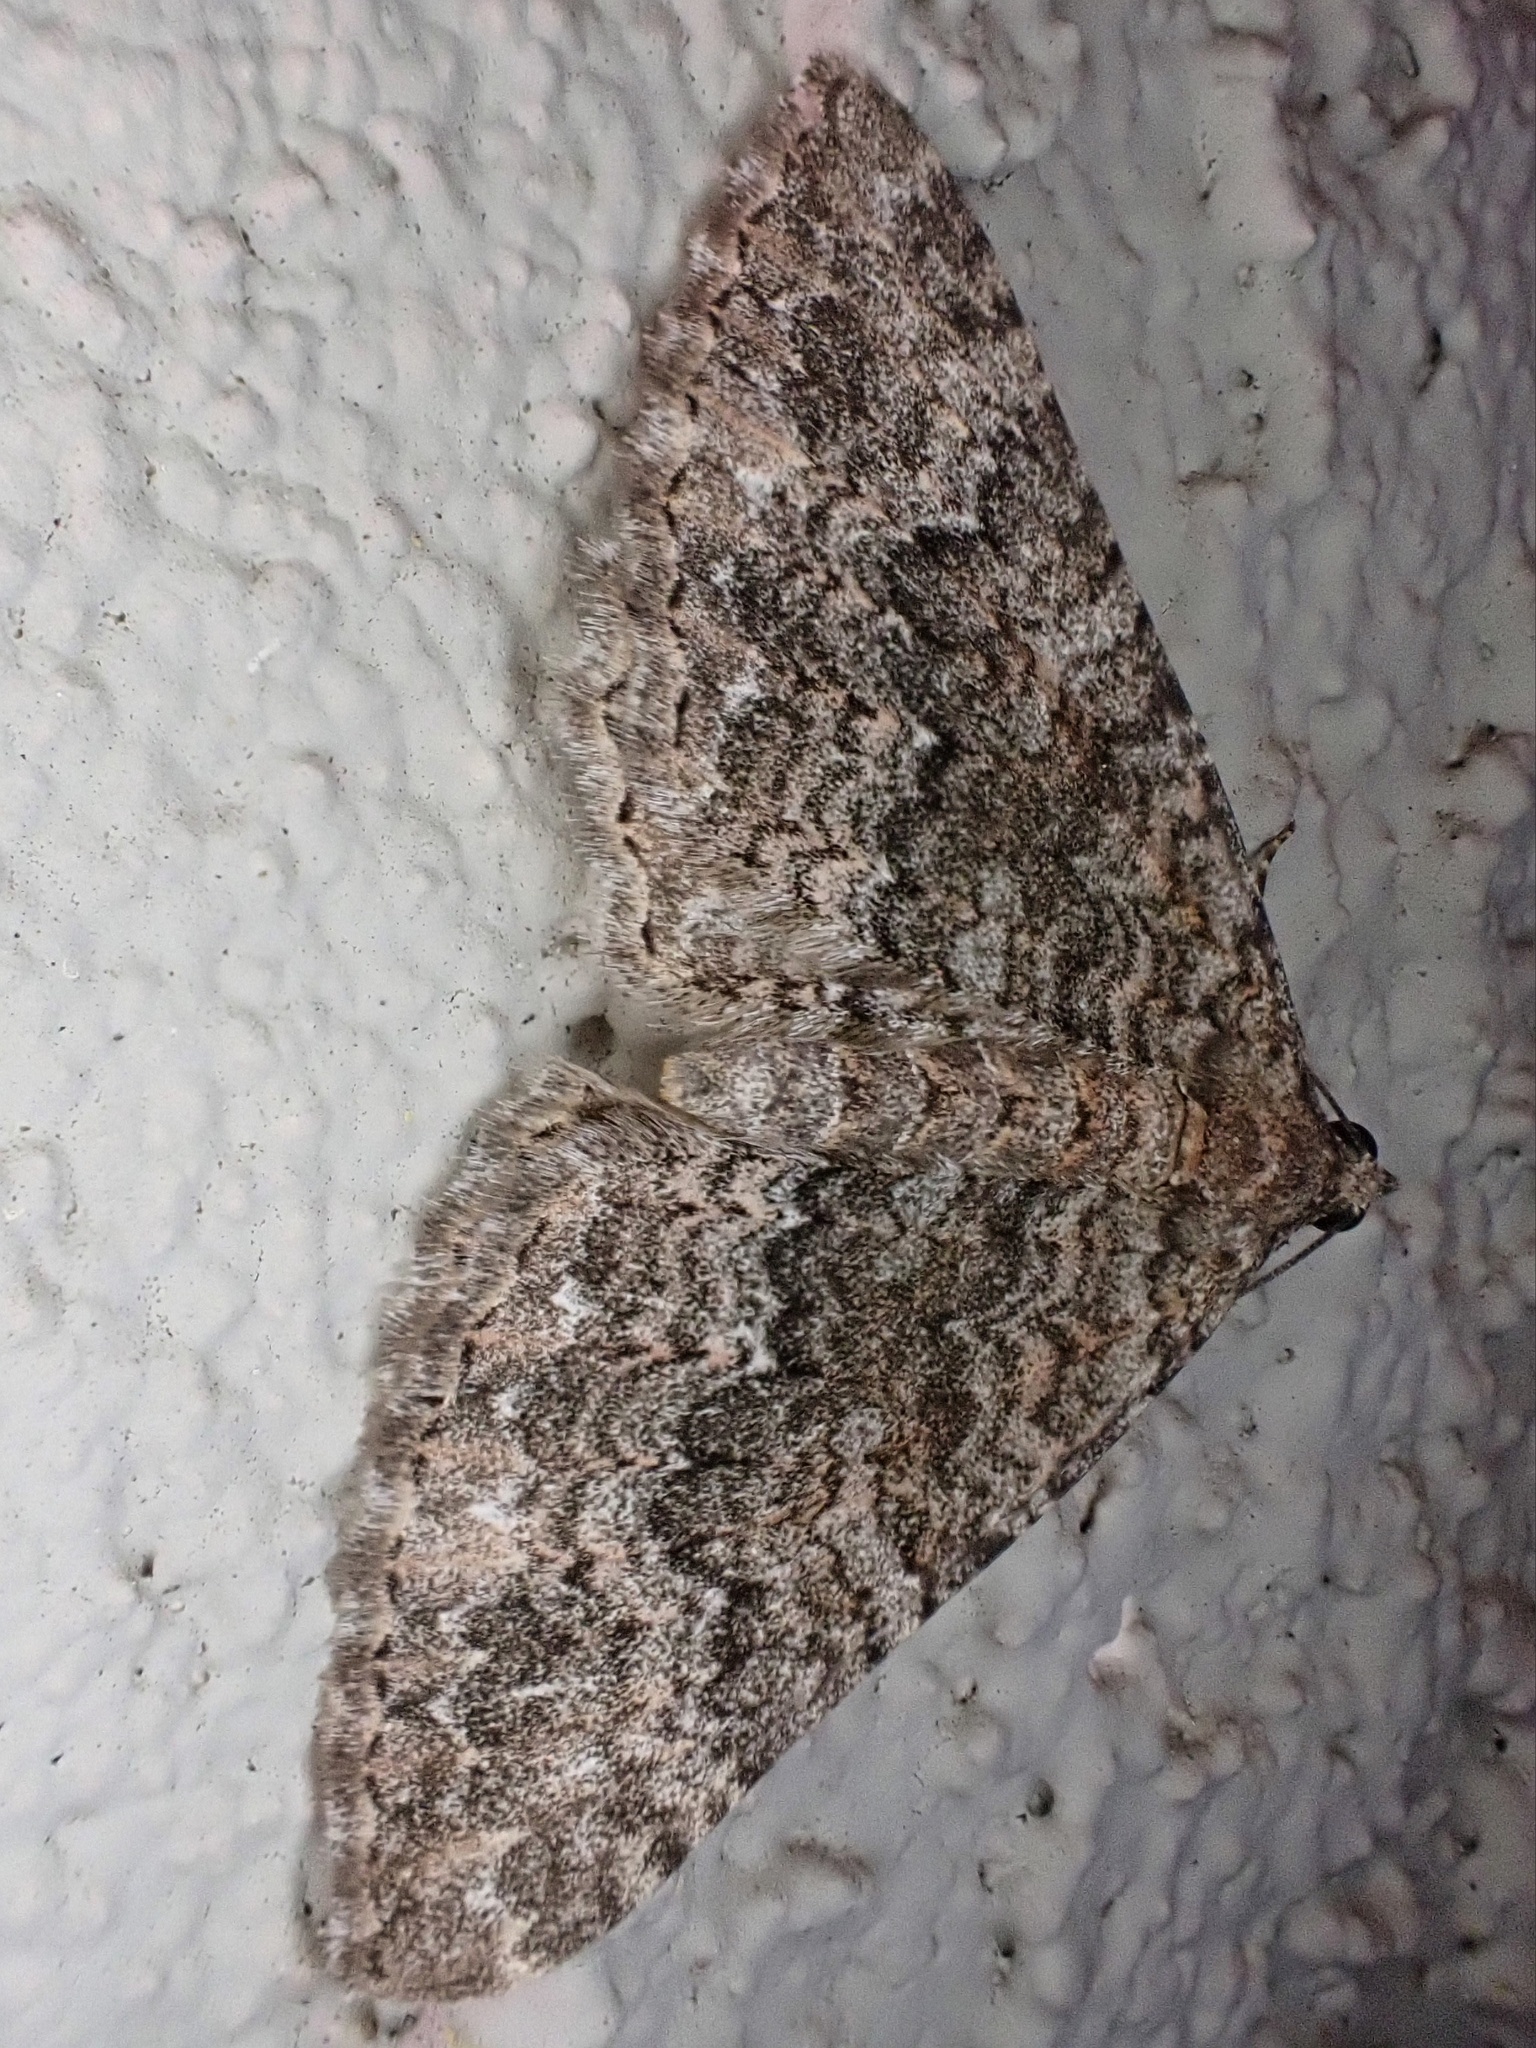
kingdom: Animalia
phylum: Arthropoda
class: Insecta
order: Lepidoptera
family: Geometridae
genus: Archirhoe
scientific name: Archirhoe neomexicana
